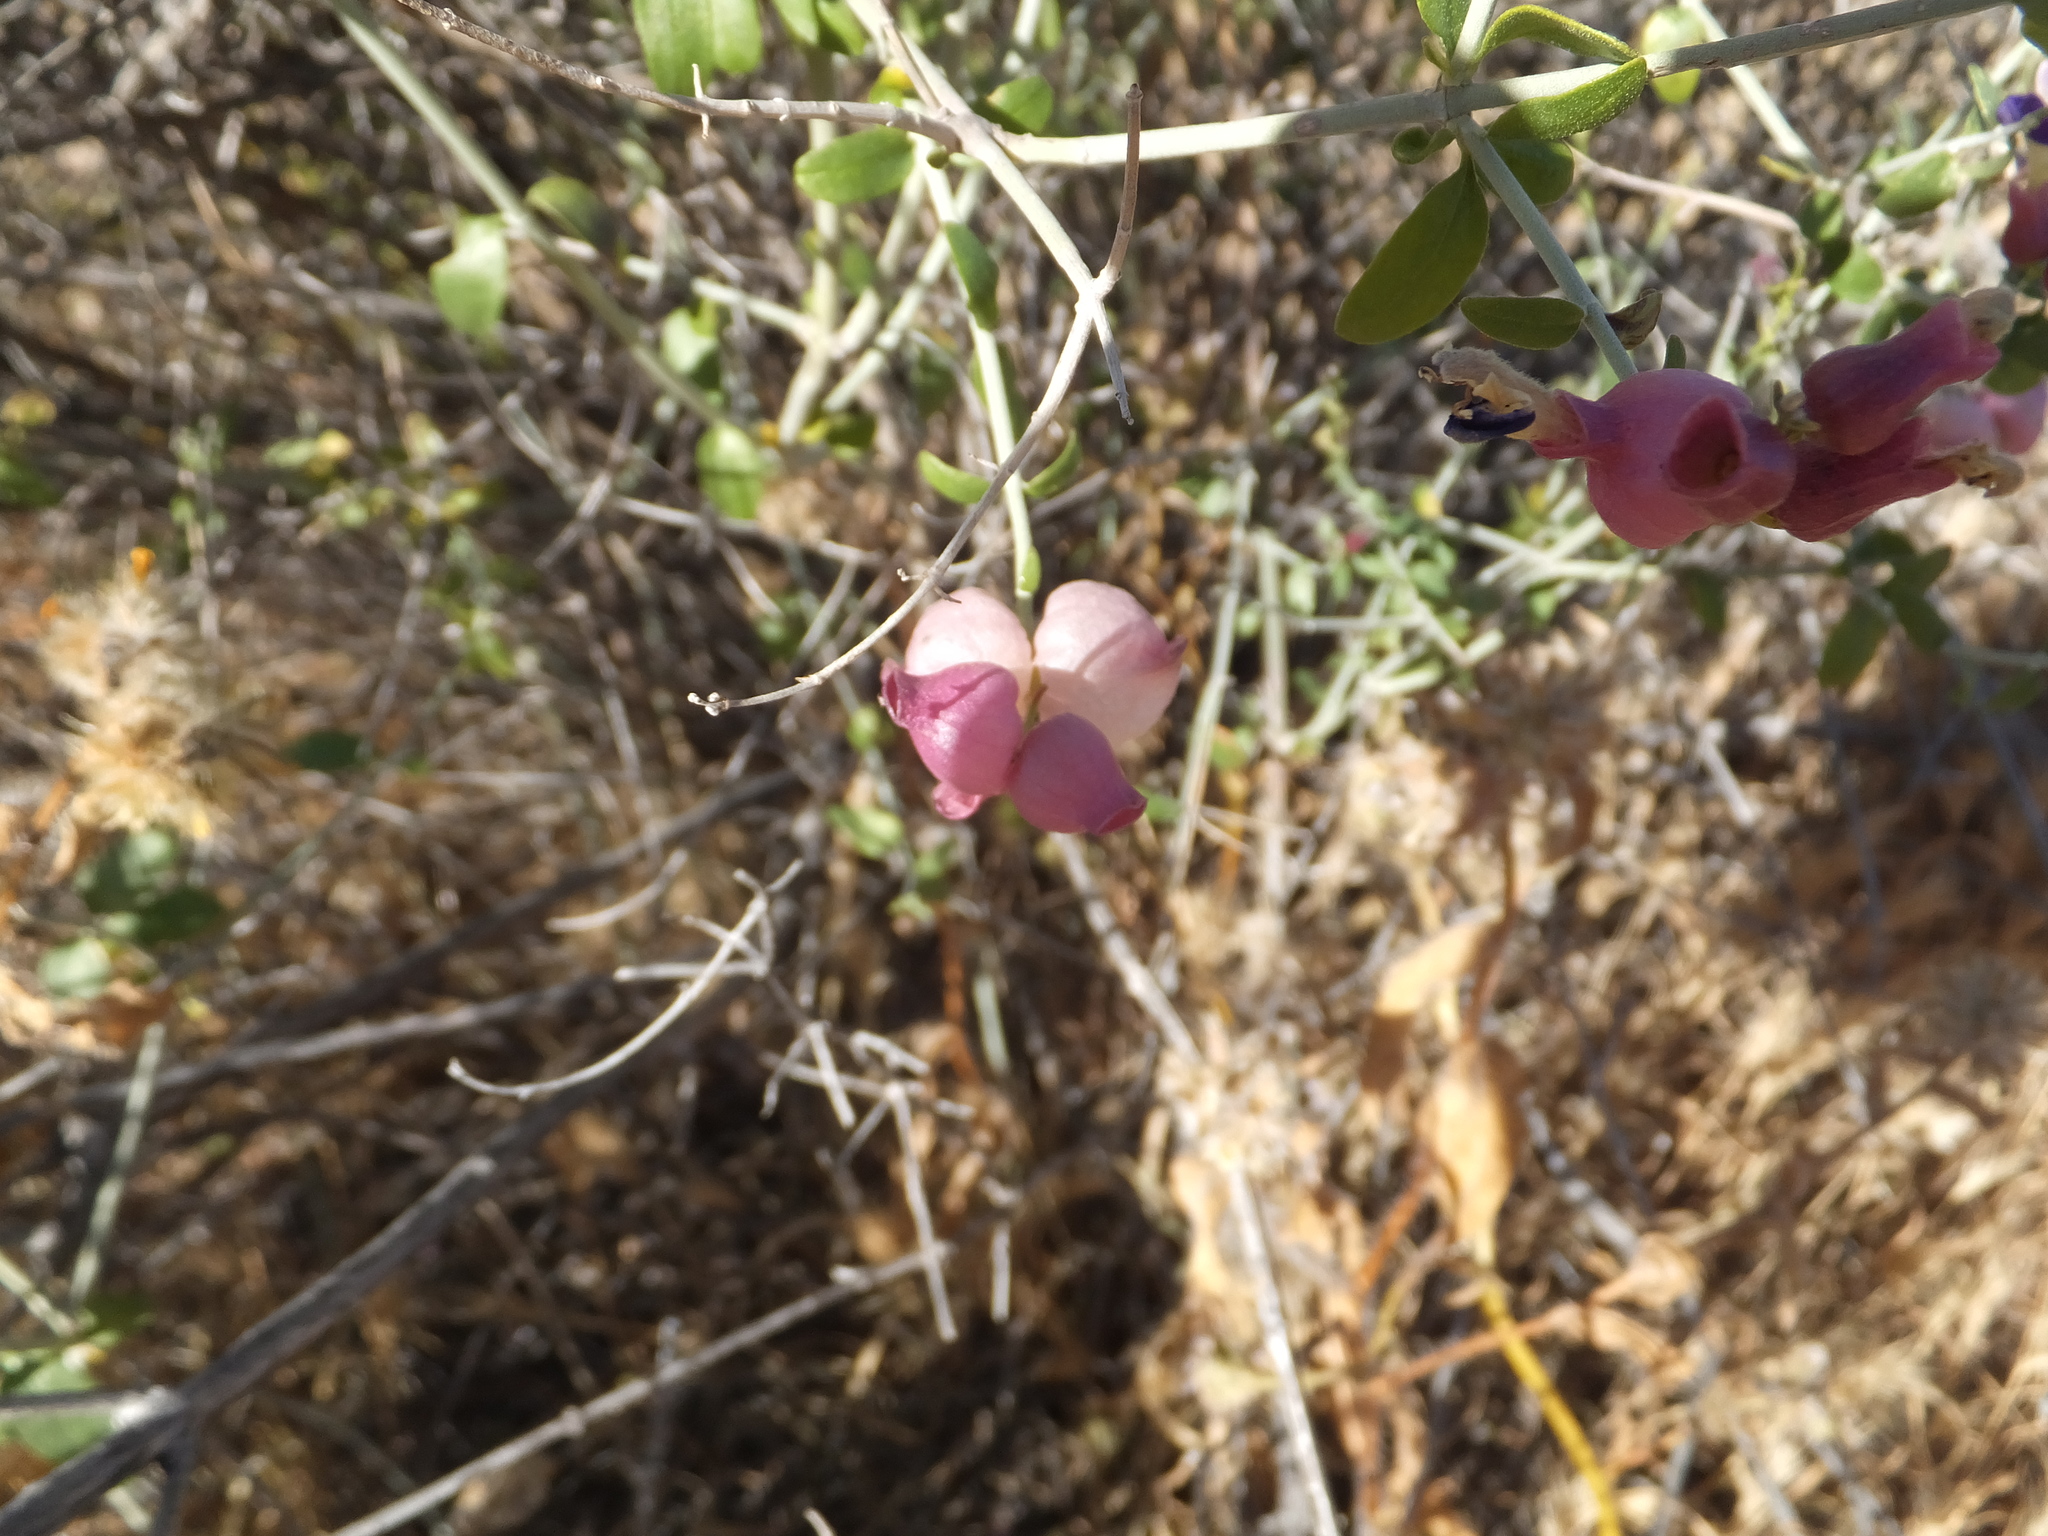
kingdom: Plantae
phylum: Tracheophyta
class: Magnoliopsida
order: Lamiales
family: Lamiaceae
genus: Scutellaria
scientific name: Scutellaria mexicana
